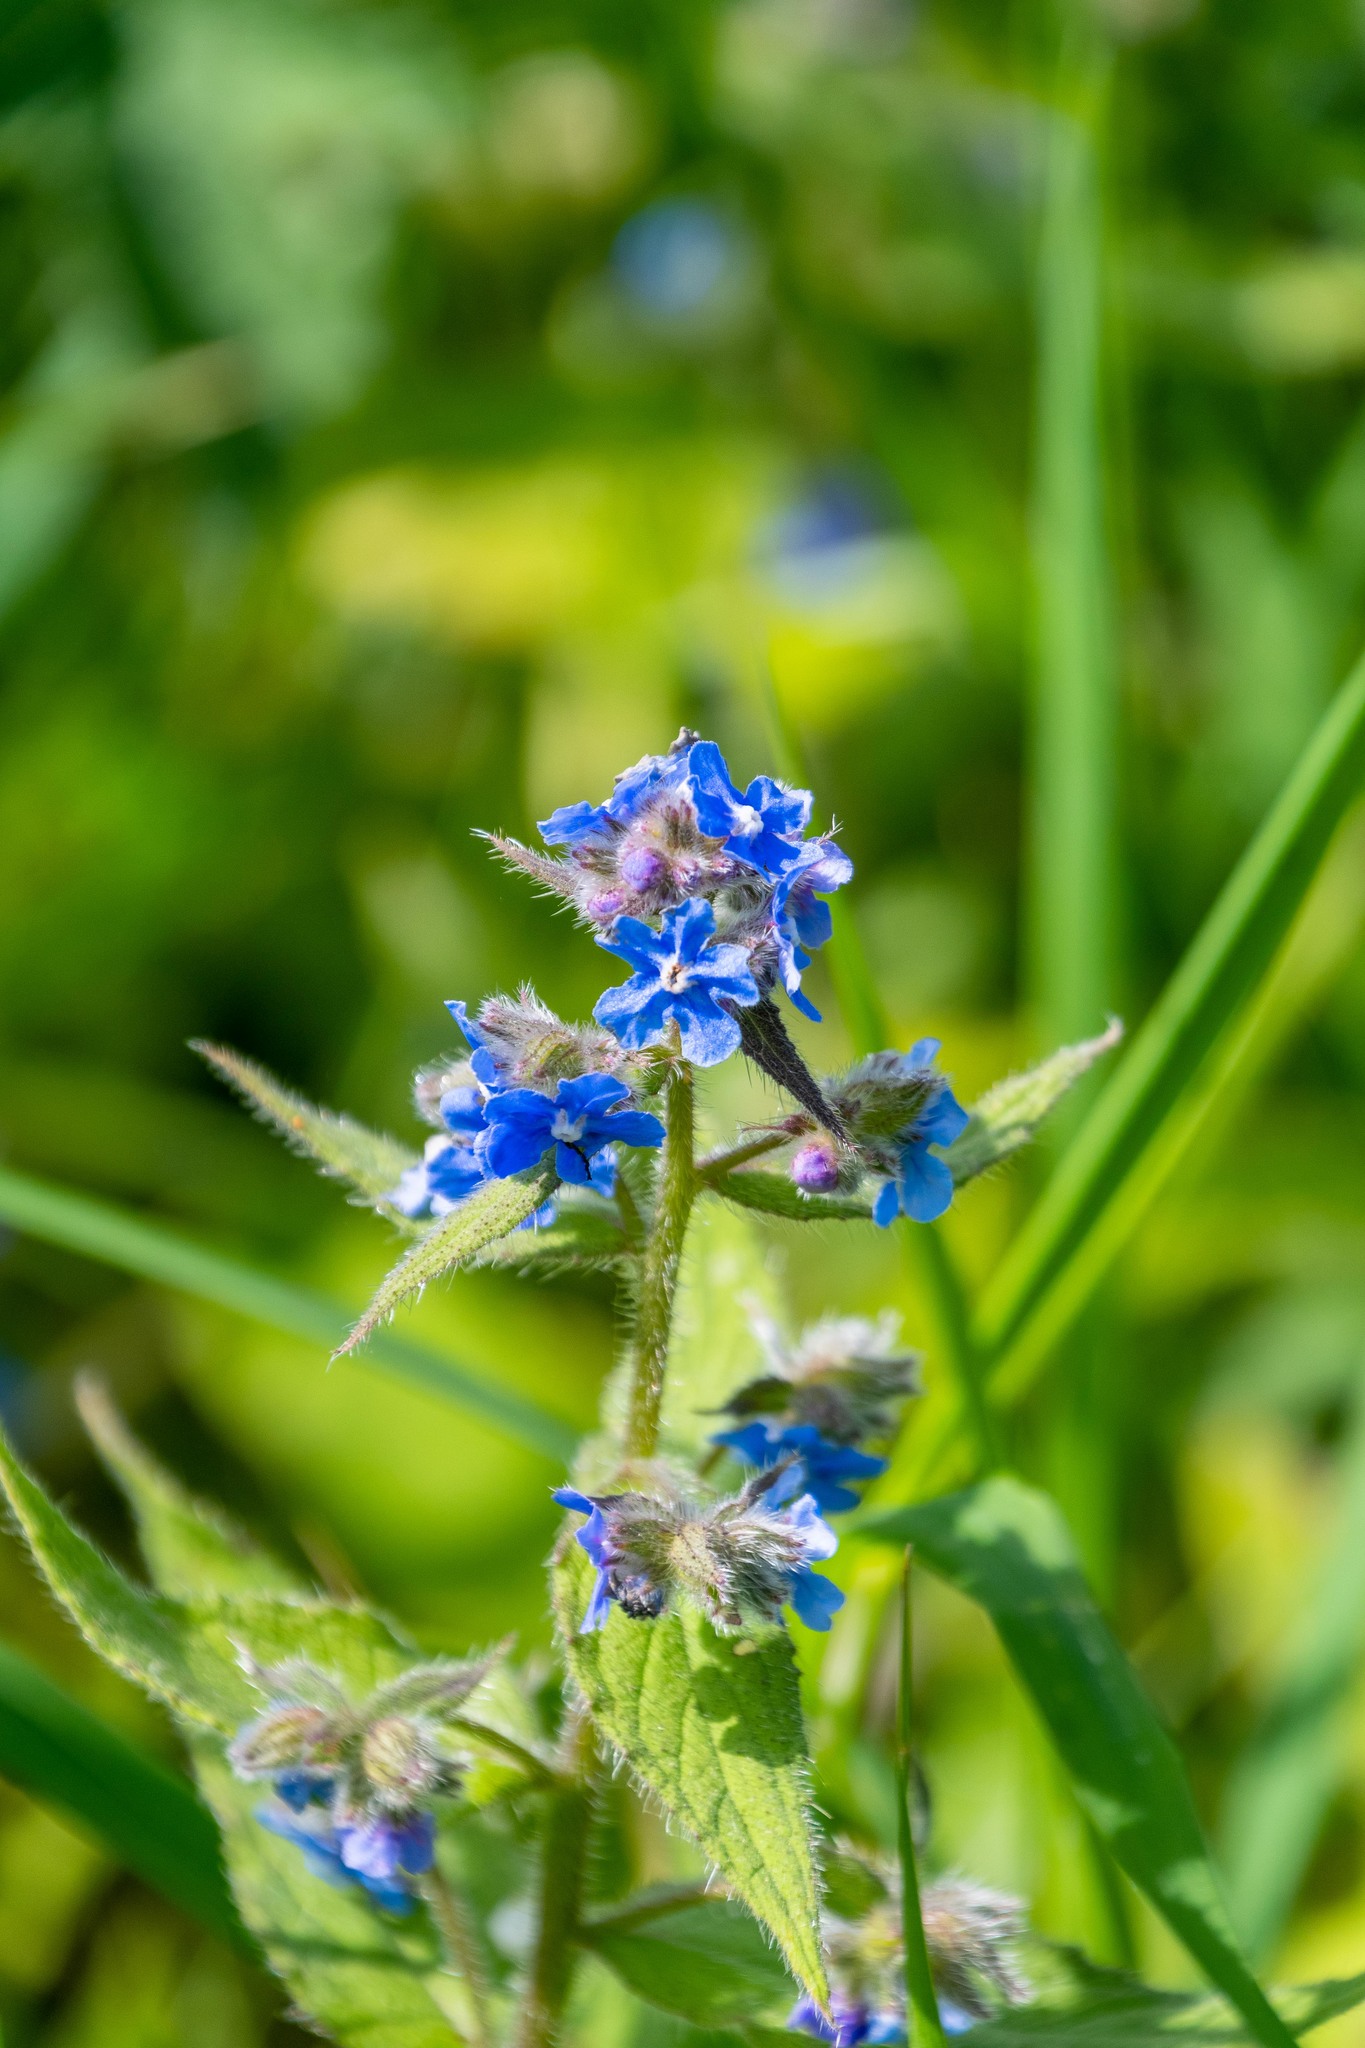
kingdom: Plantae
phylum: Tracheophyta
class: Magnoliopsida
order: Boraginales
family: Boraginaceae
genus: Pentaglottis
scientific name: Pentaglottis sempervirens
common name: Green alkanet
